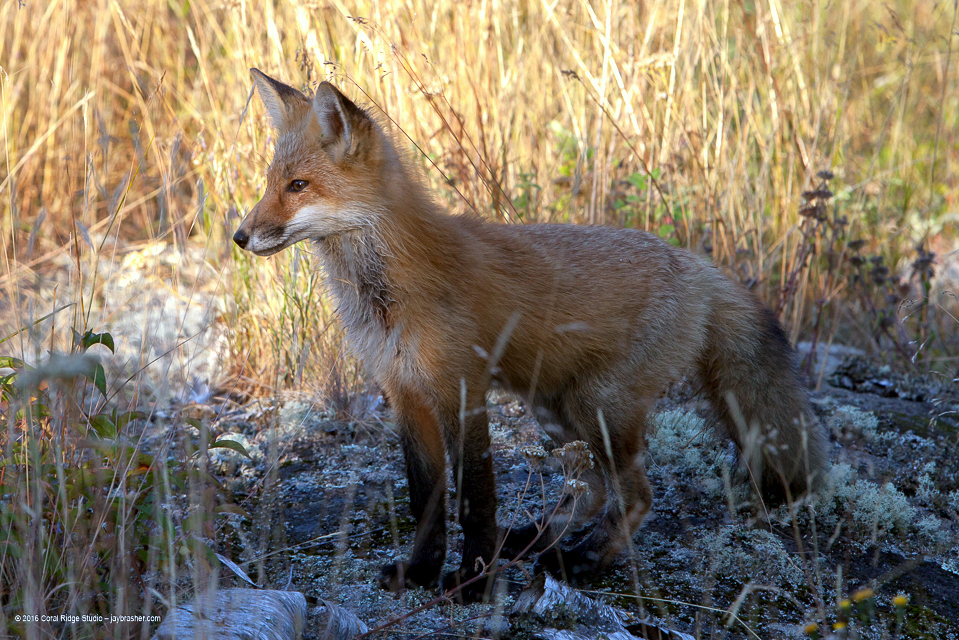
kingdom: Animalia
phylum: Chordata
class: Mammalia
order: Carnivora
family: Canidae
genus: Vulpes
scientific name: Vulpes vulpes
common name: Red fox
